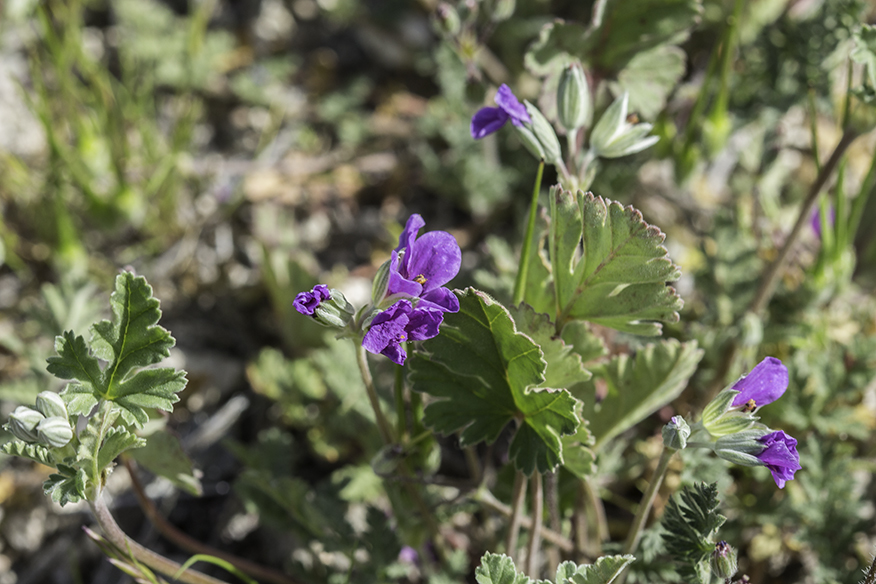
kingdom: Plantae
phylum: Tracheophyta
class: Magnoliopsida
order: Geraniales
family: Geraniaceae
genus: Erodium
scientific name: Erodium texanum
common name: Texas stork's-bill
